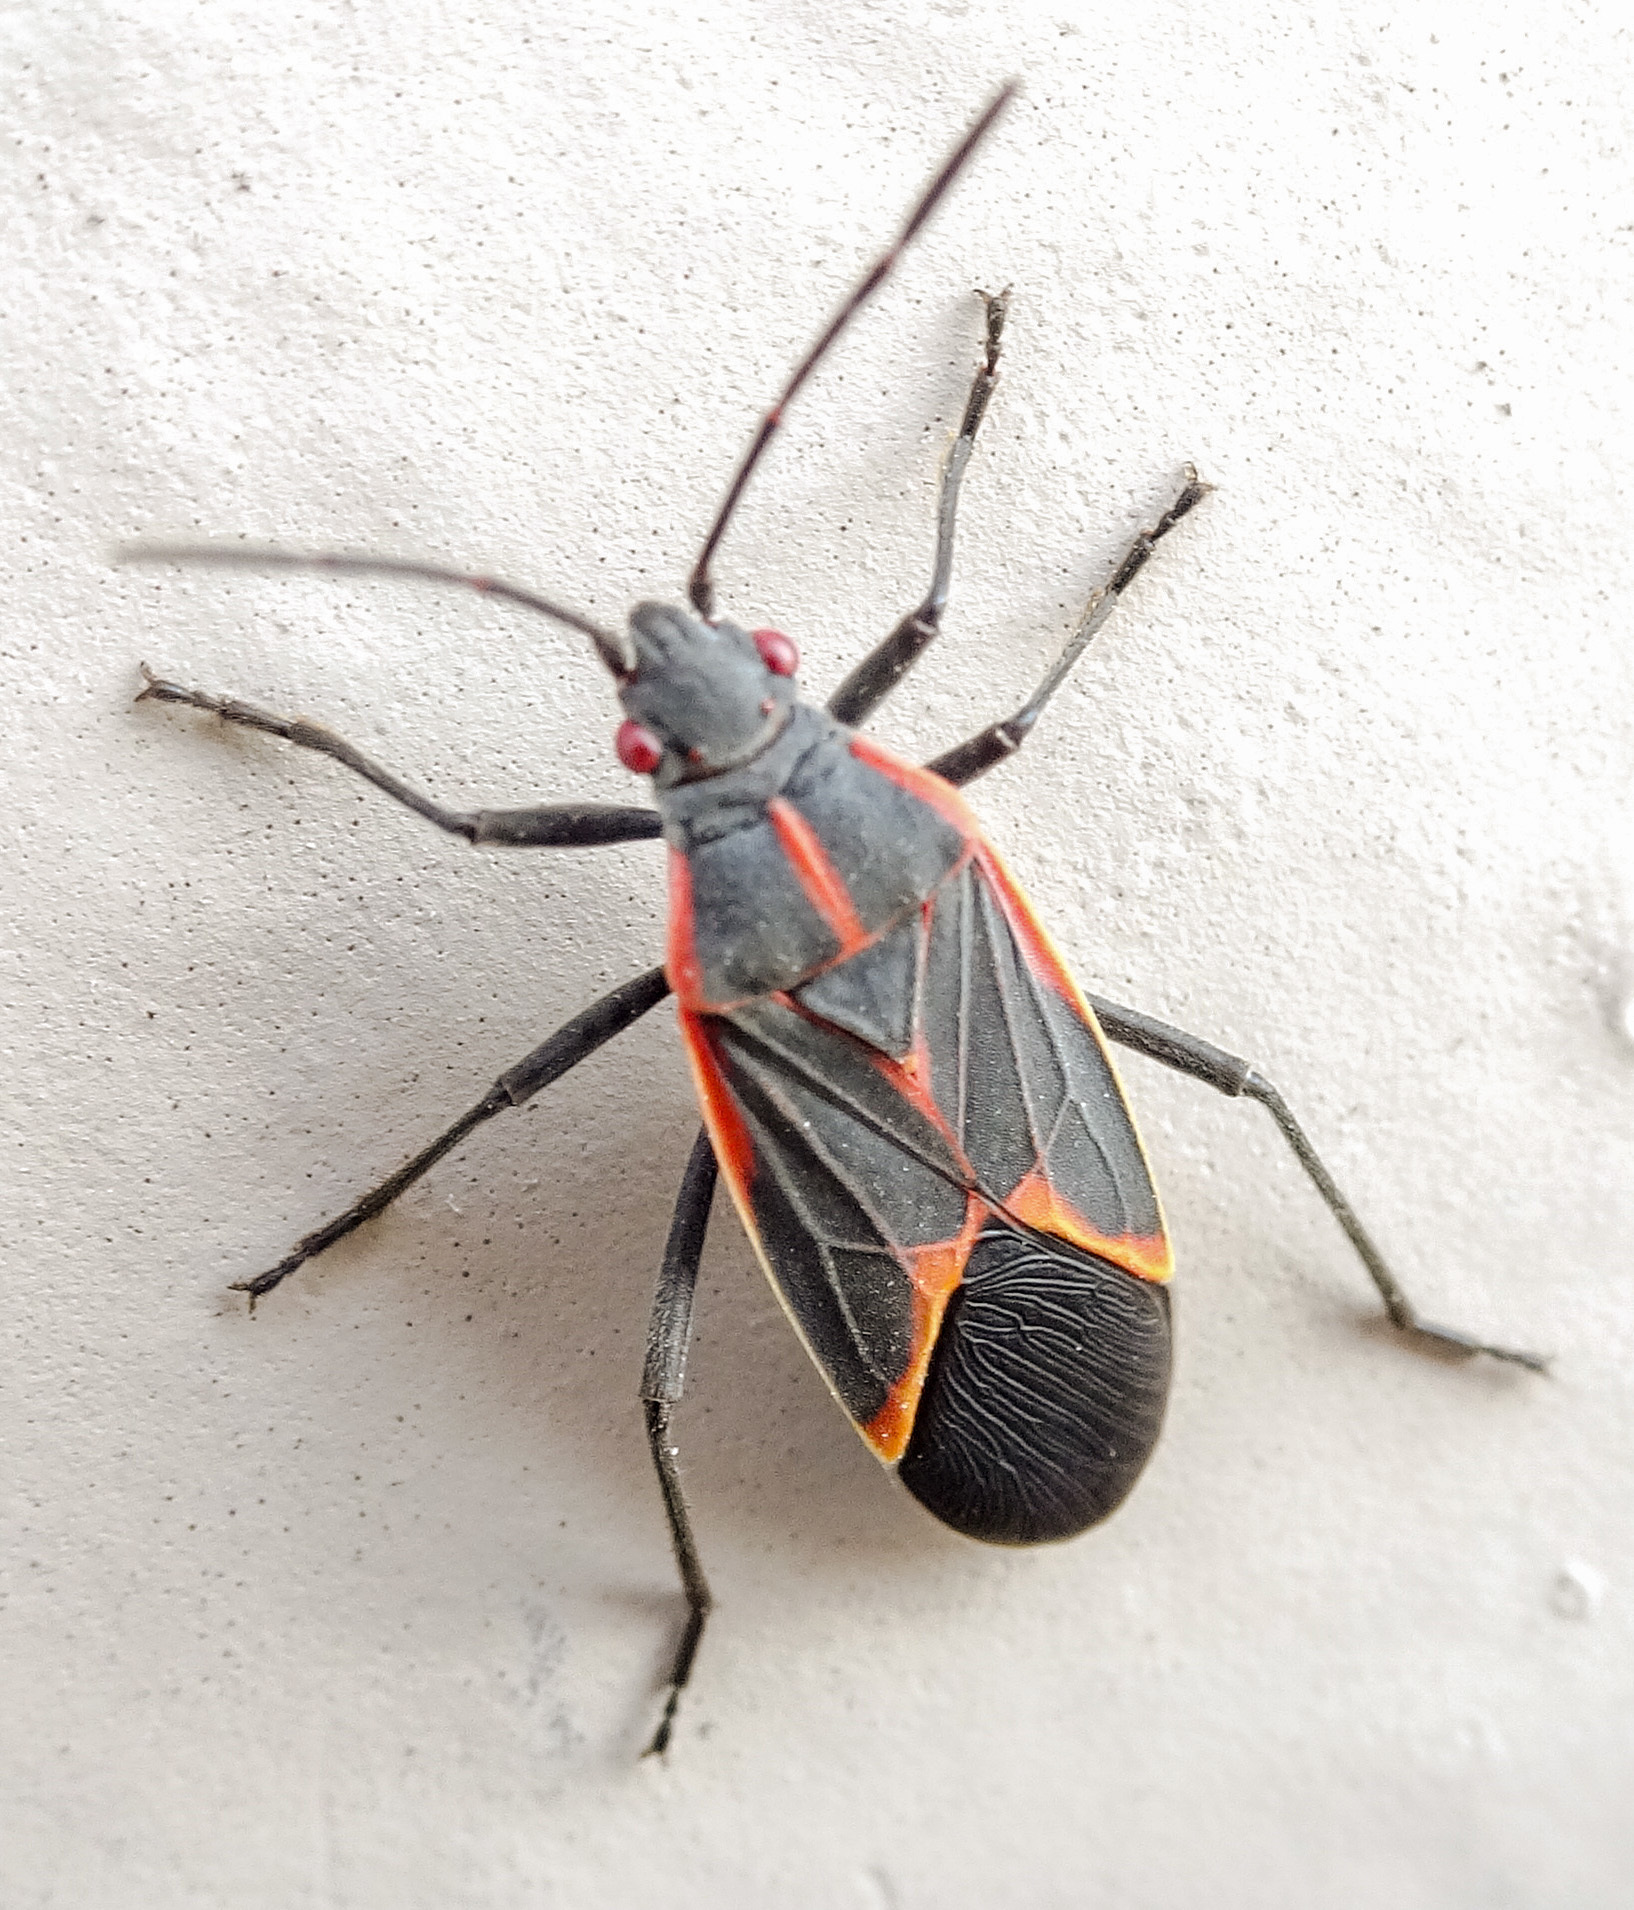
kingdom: Animalia
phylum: Arthropoda
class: Insecta
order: Hemiptera
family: Rhopalidae
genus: Boisea
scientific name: Boisea trivittata
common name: Boxelder bug
